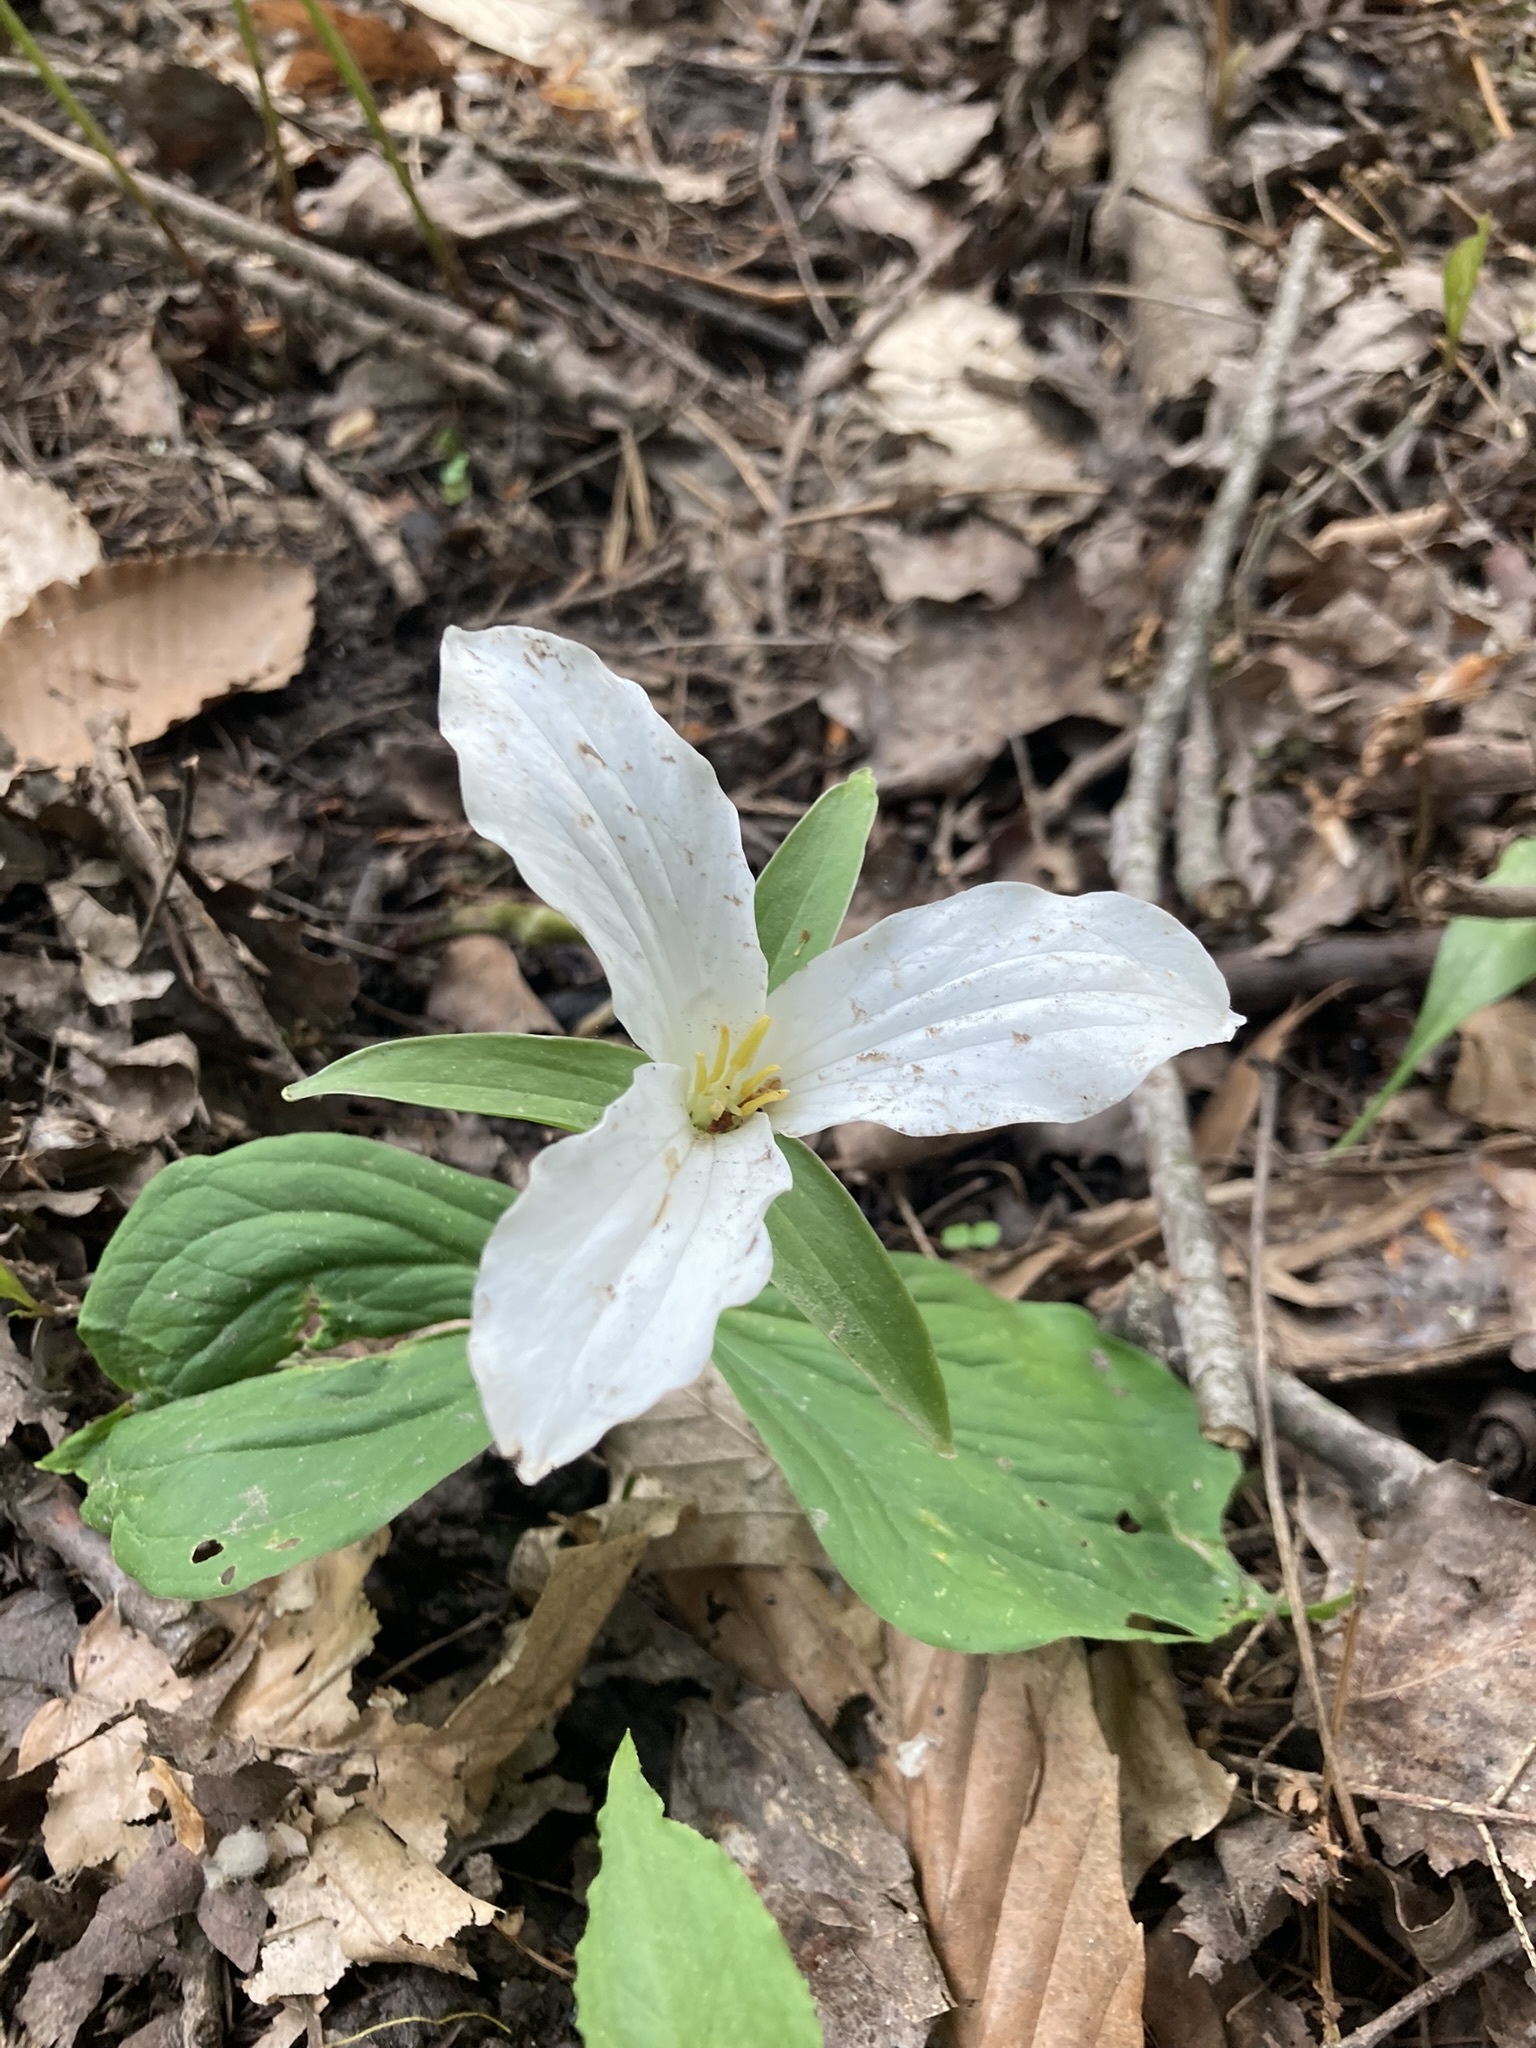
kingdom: Plantae
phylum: Tracheophyta
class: Liliopsida
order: Liliales
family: Melanthiaceae
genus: Trillium
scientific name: Trillium grandiflorum
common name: Great white trillium
